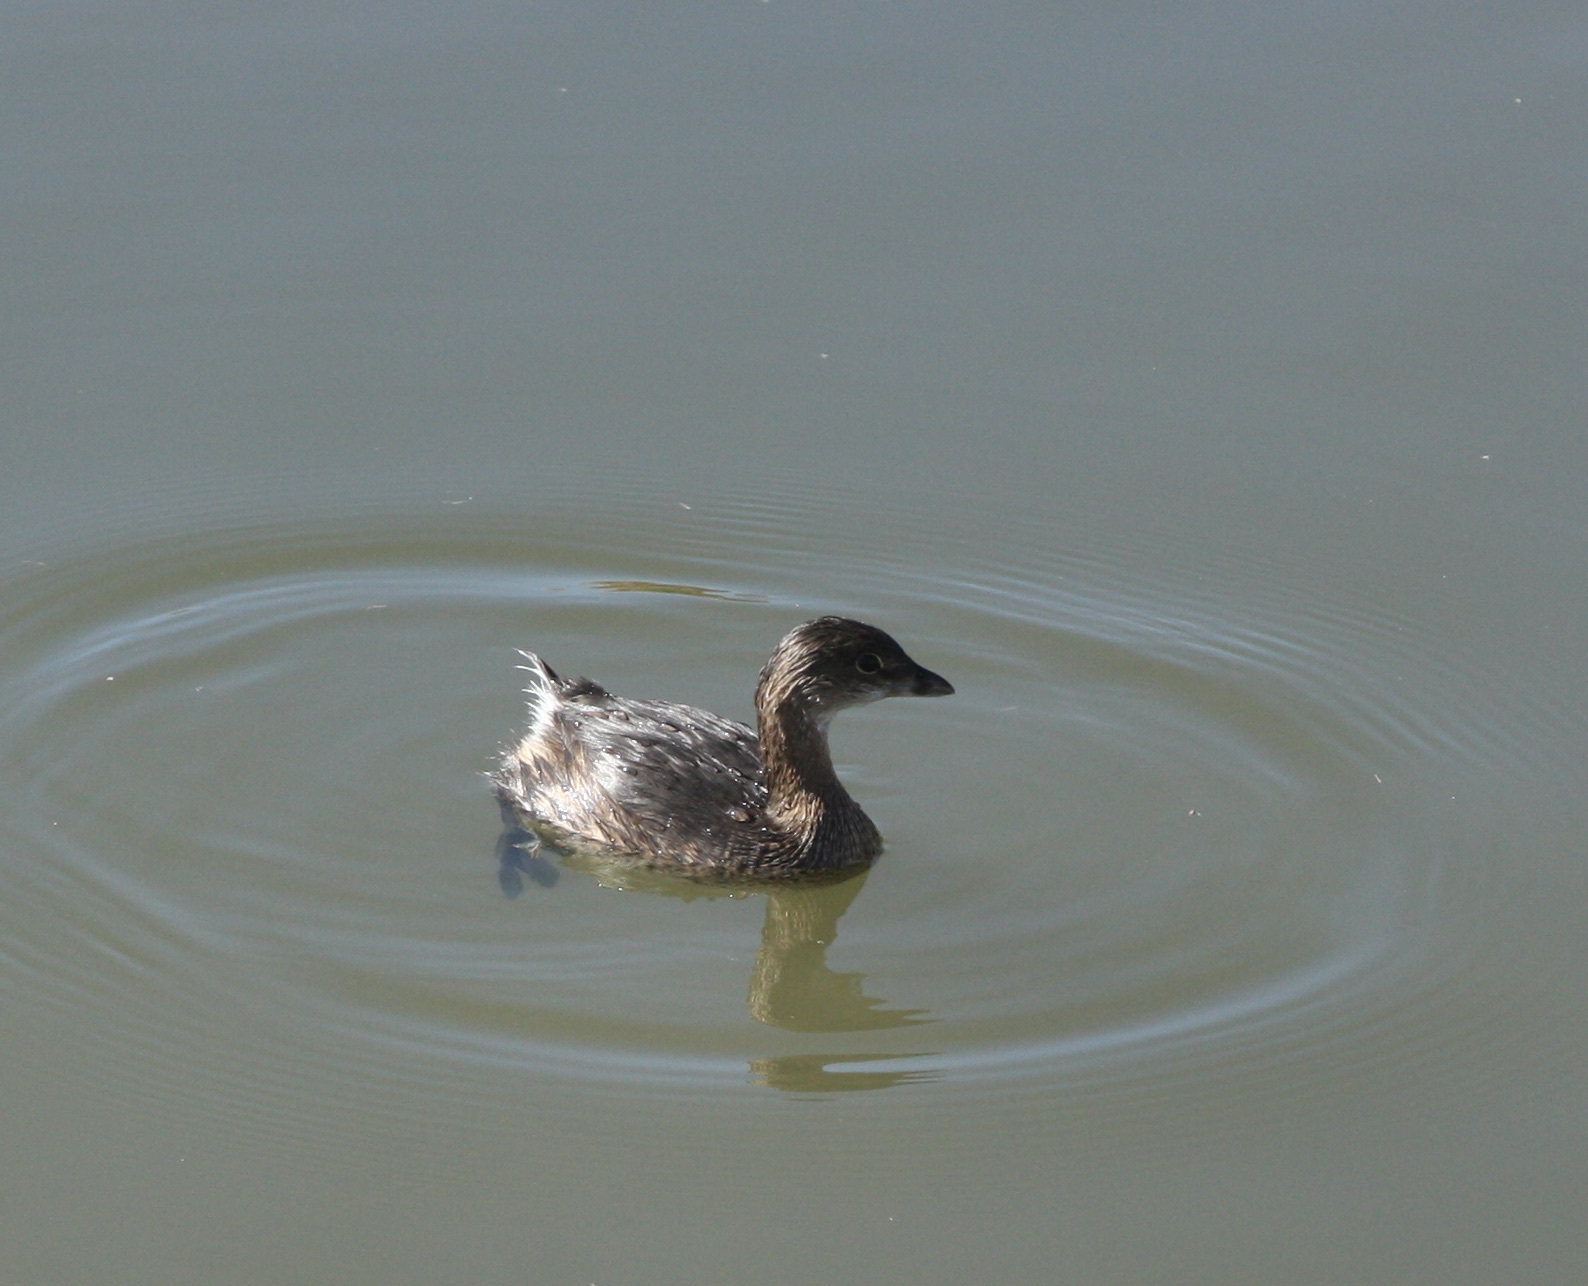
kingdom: Animalia
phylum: Chordata
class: Aves
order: Podicipediformes
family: Podicipedidae
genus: Podilymbus
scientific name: Podilymbus podiceps
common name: Pied-billed grebe
